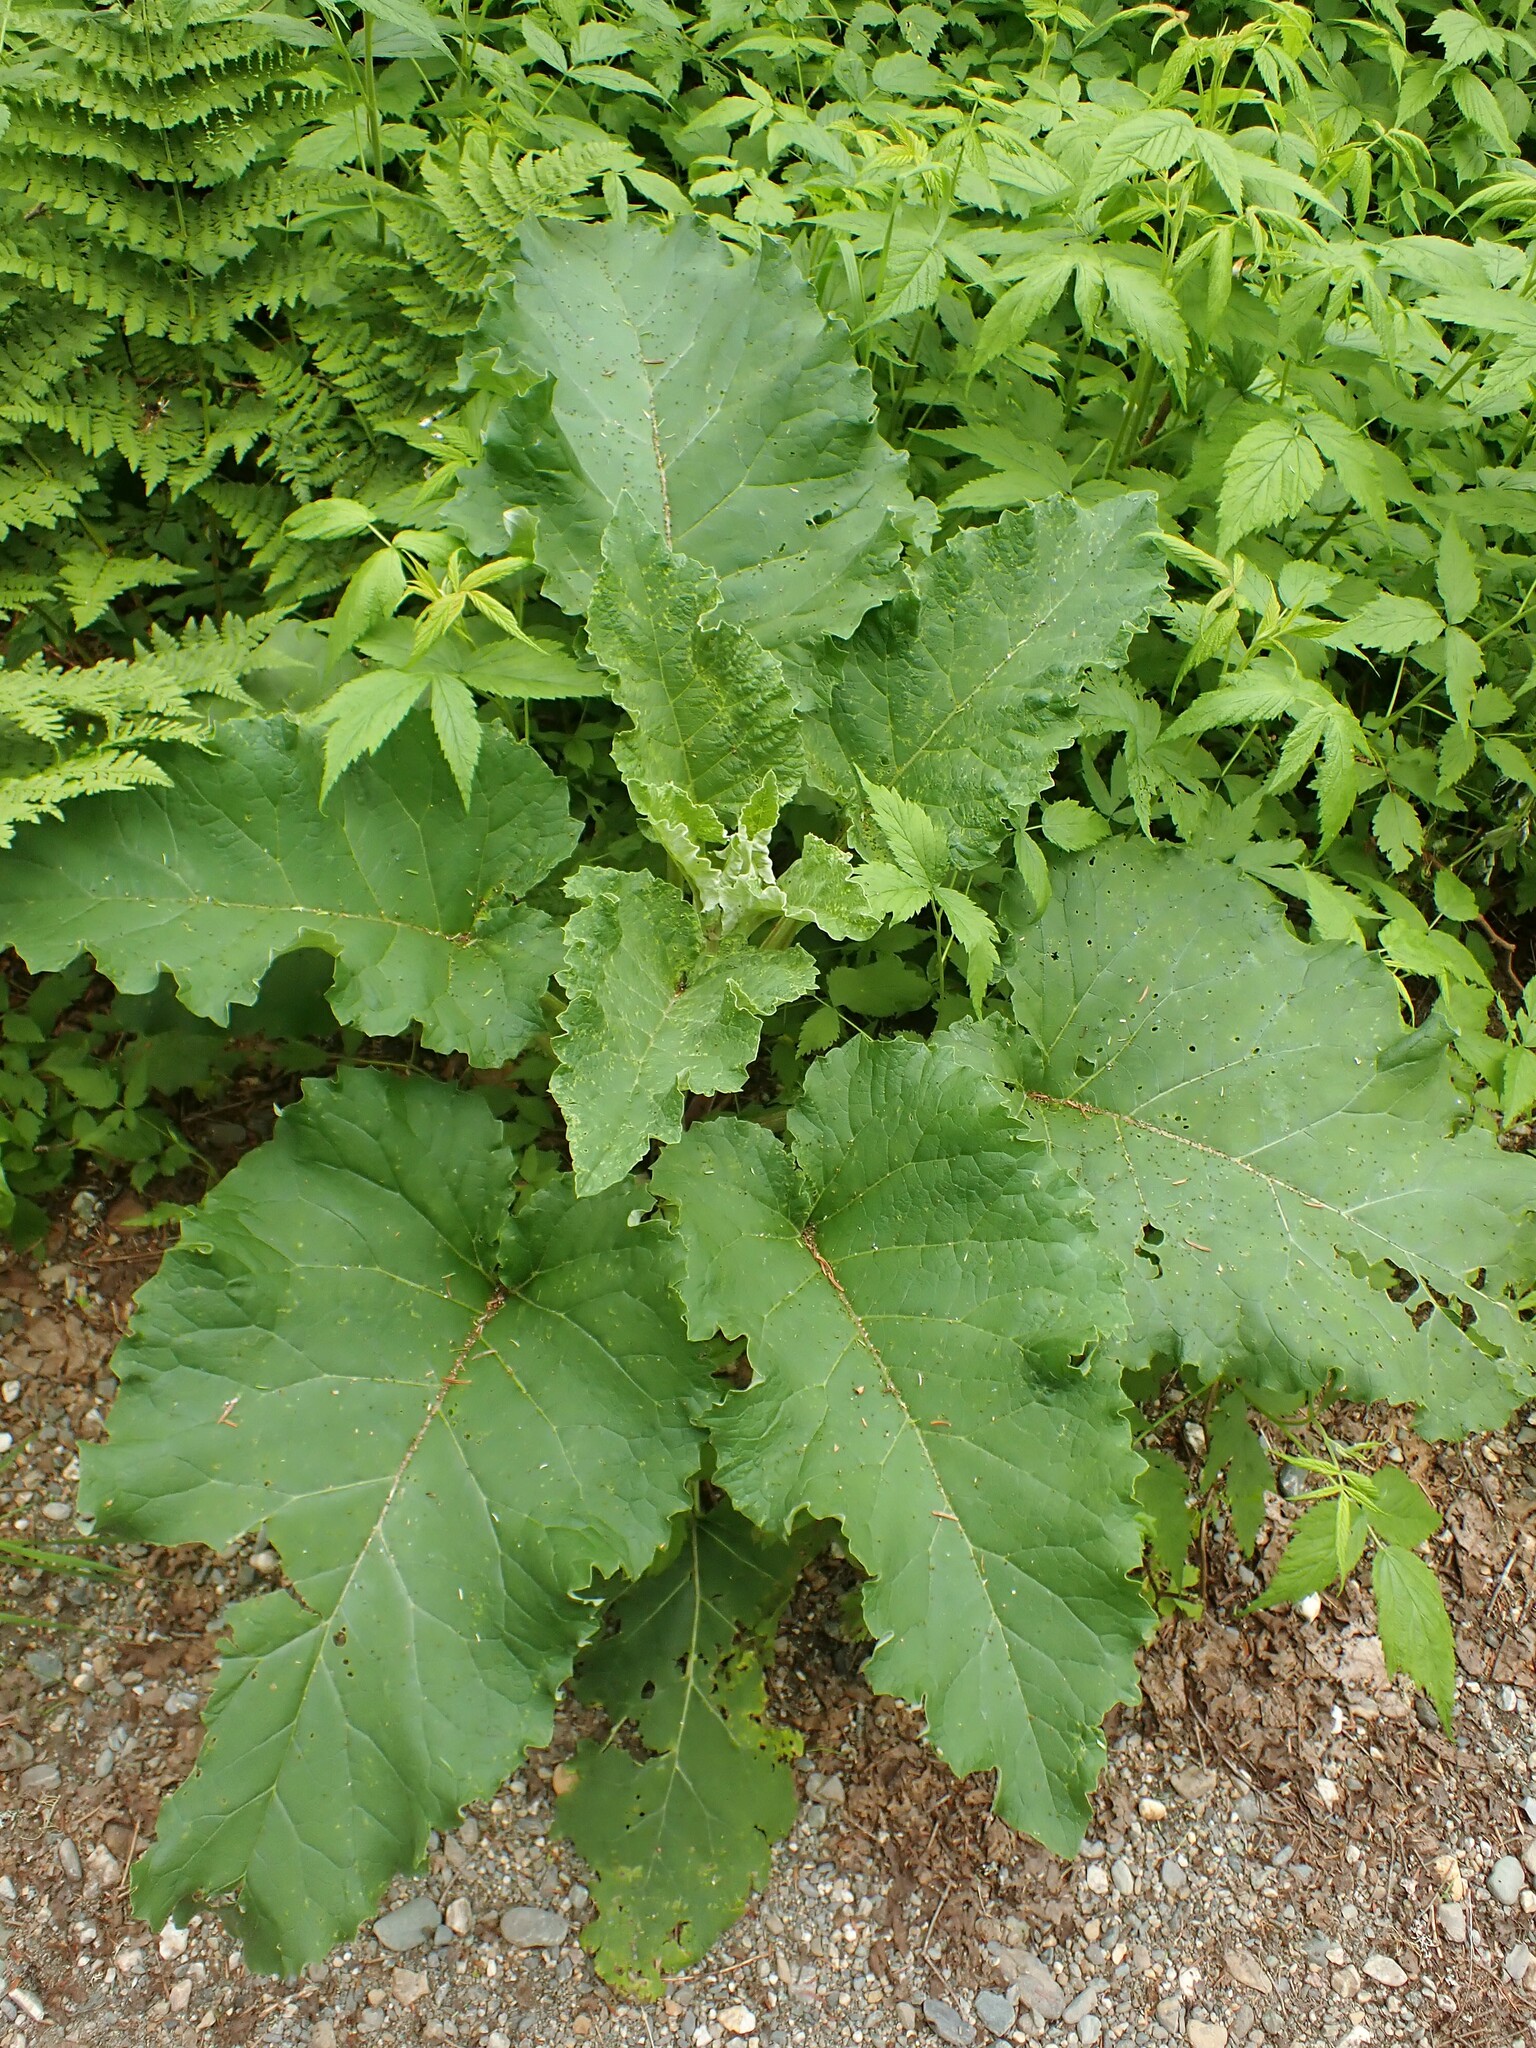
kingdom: Plantae
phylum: Tracheophyta
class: Magnoliopsida
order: Asterales
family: Asteraceae
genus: Arctium
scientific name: Arctium
